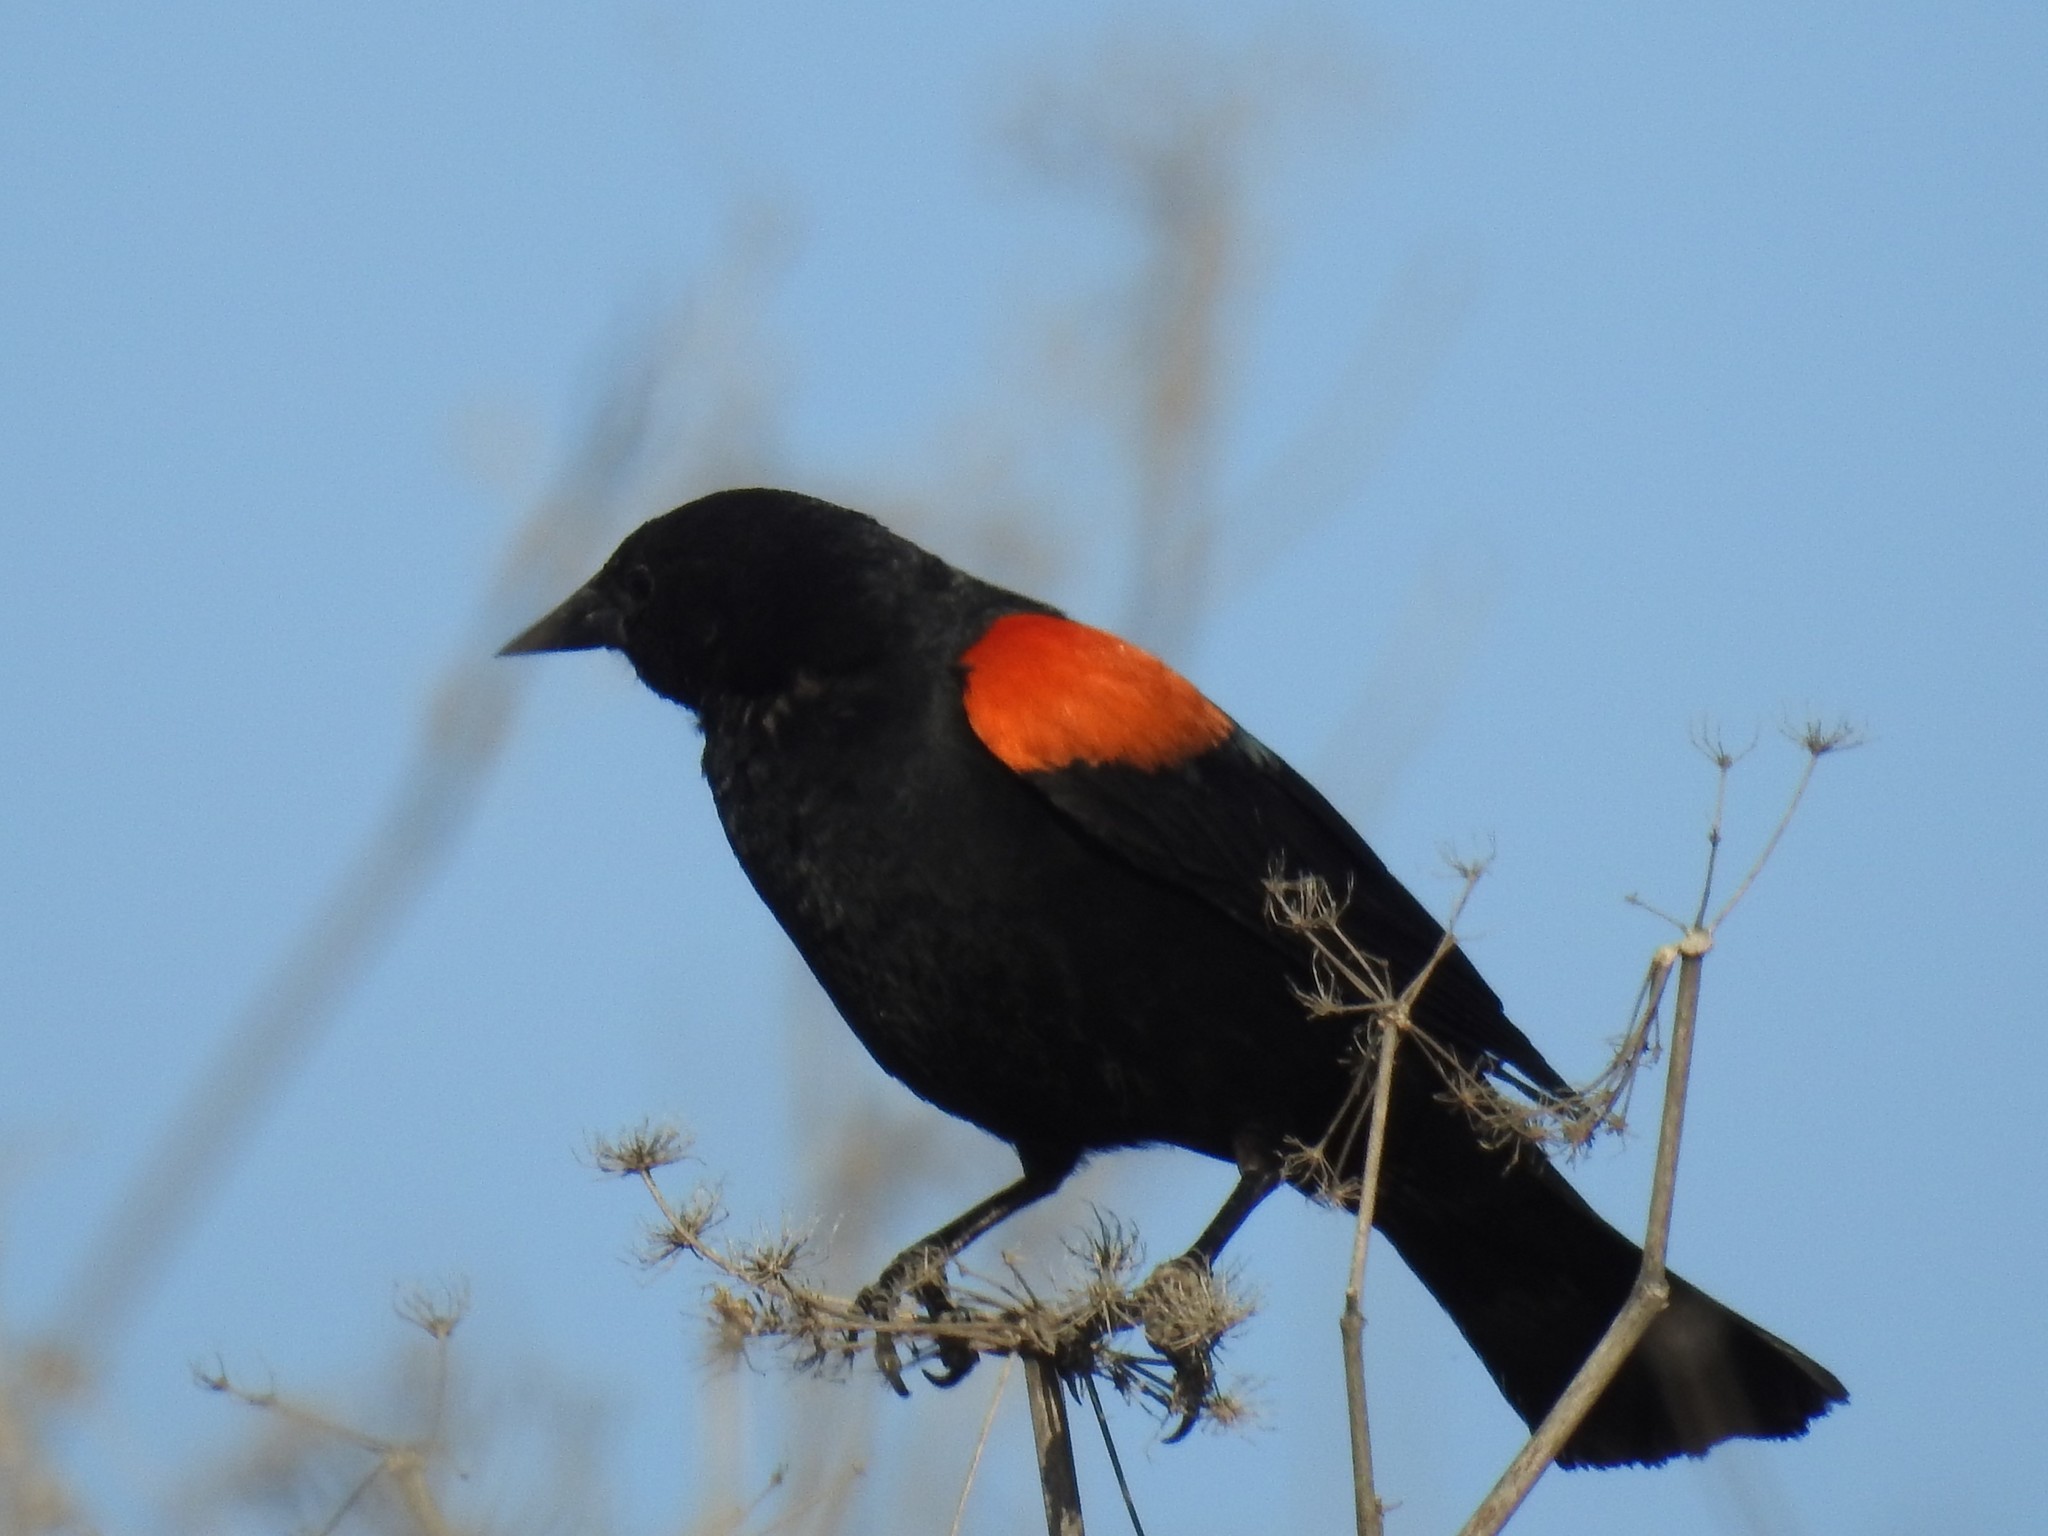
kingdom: Animalia
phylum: Chordata
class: Aves
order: Passeriformes
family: Icteridae
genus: Agelaius
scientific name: Agelaius phoeniceus
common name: Red-winged blackbird
